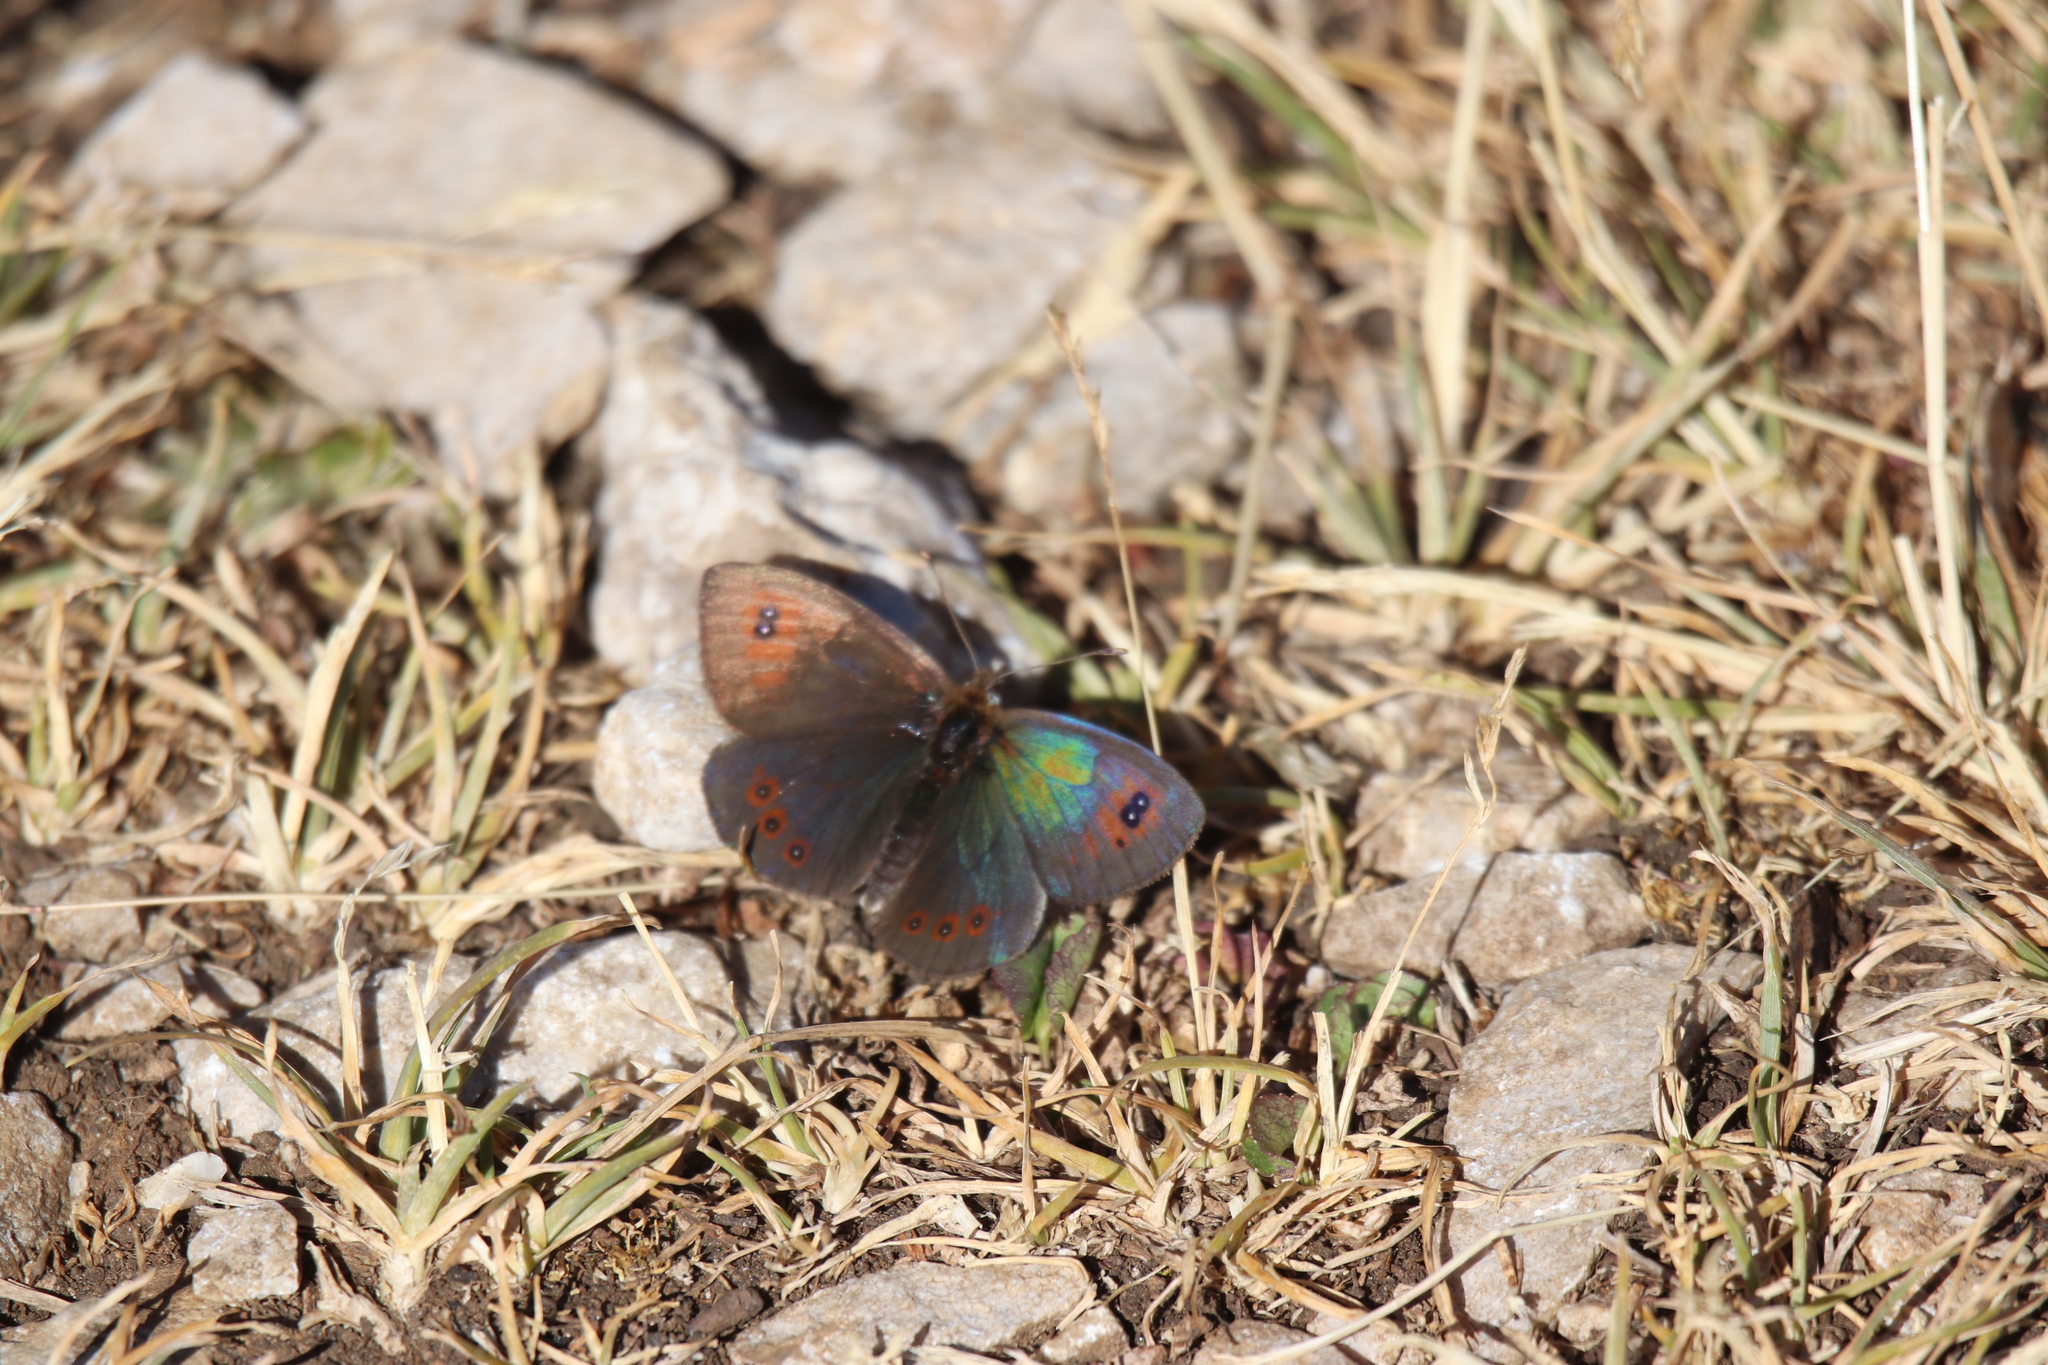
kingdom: Animalia
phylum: Arthropoda
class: Insecta
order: Lepidoptera
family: Nymphalidae
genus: Erebia
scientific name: Erebia cassioides
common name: Common brassy ringlet
